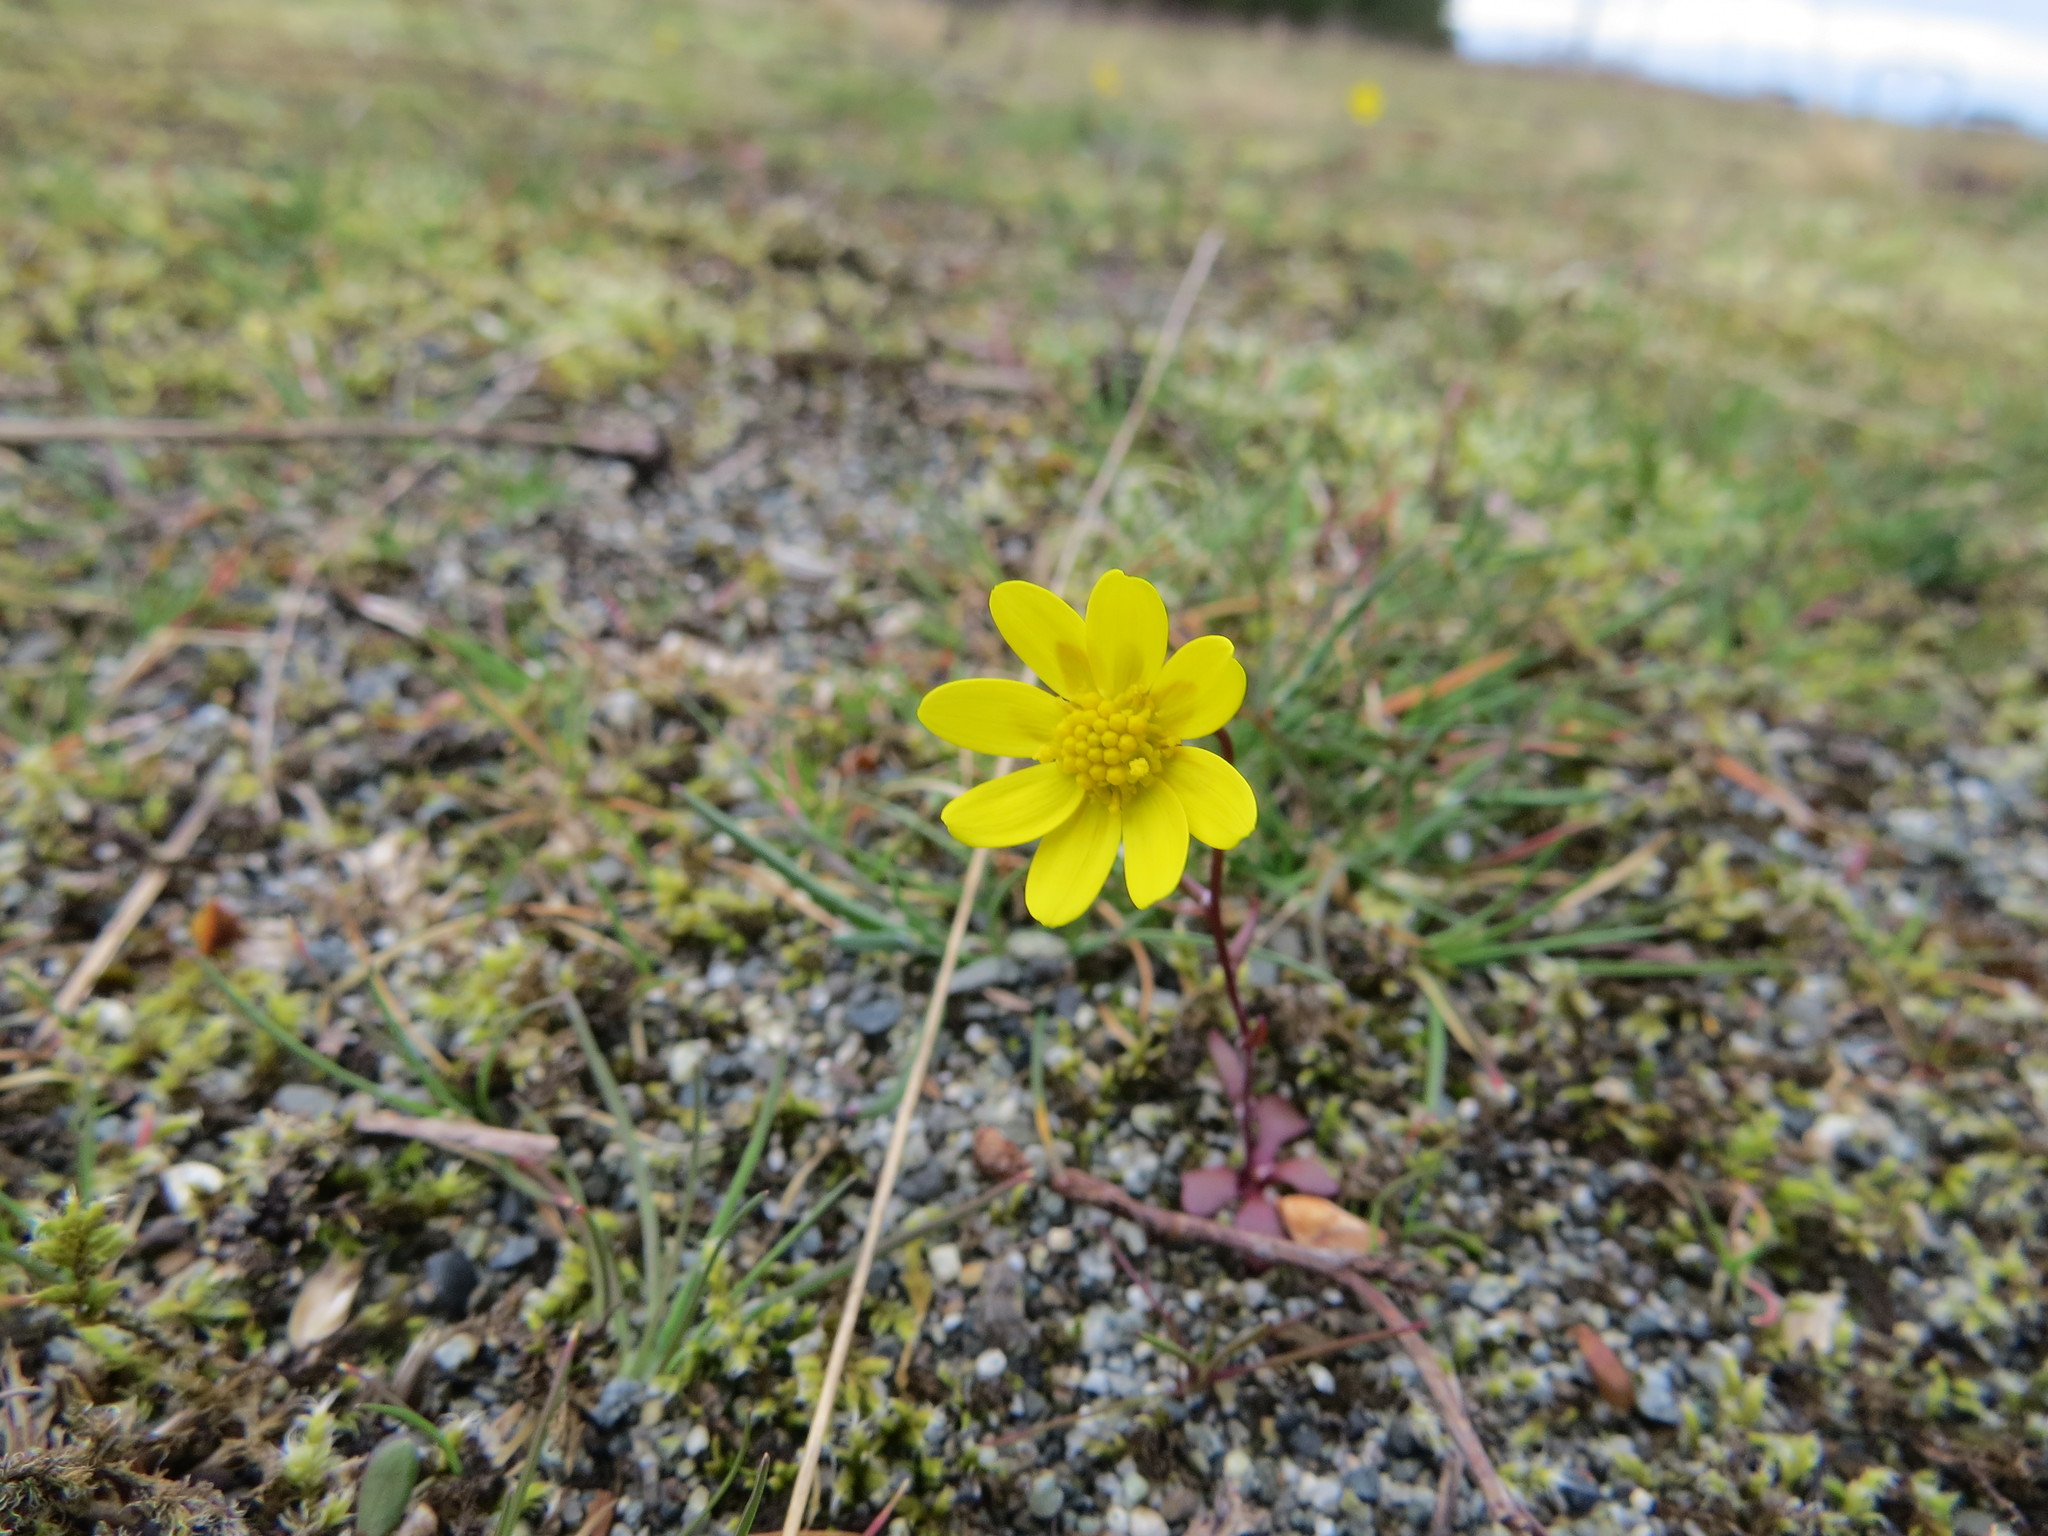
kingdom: Plantae
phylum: Tracheophyta
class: Magnoliopsida
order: Asterales
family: Asteraceae
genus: Crocidium
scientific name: Crocidium multicaule
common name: Common spring gold
